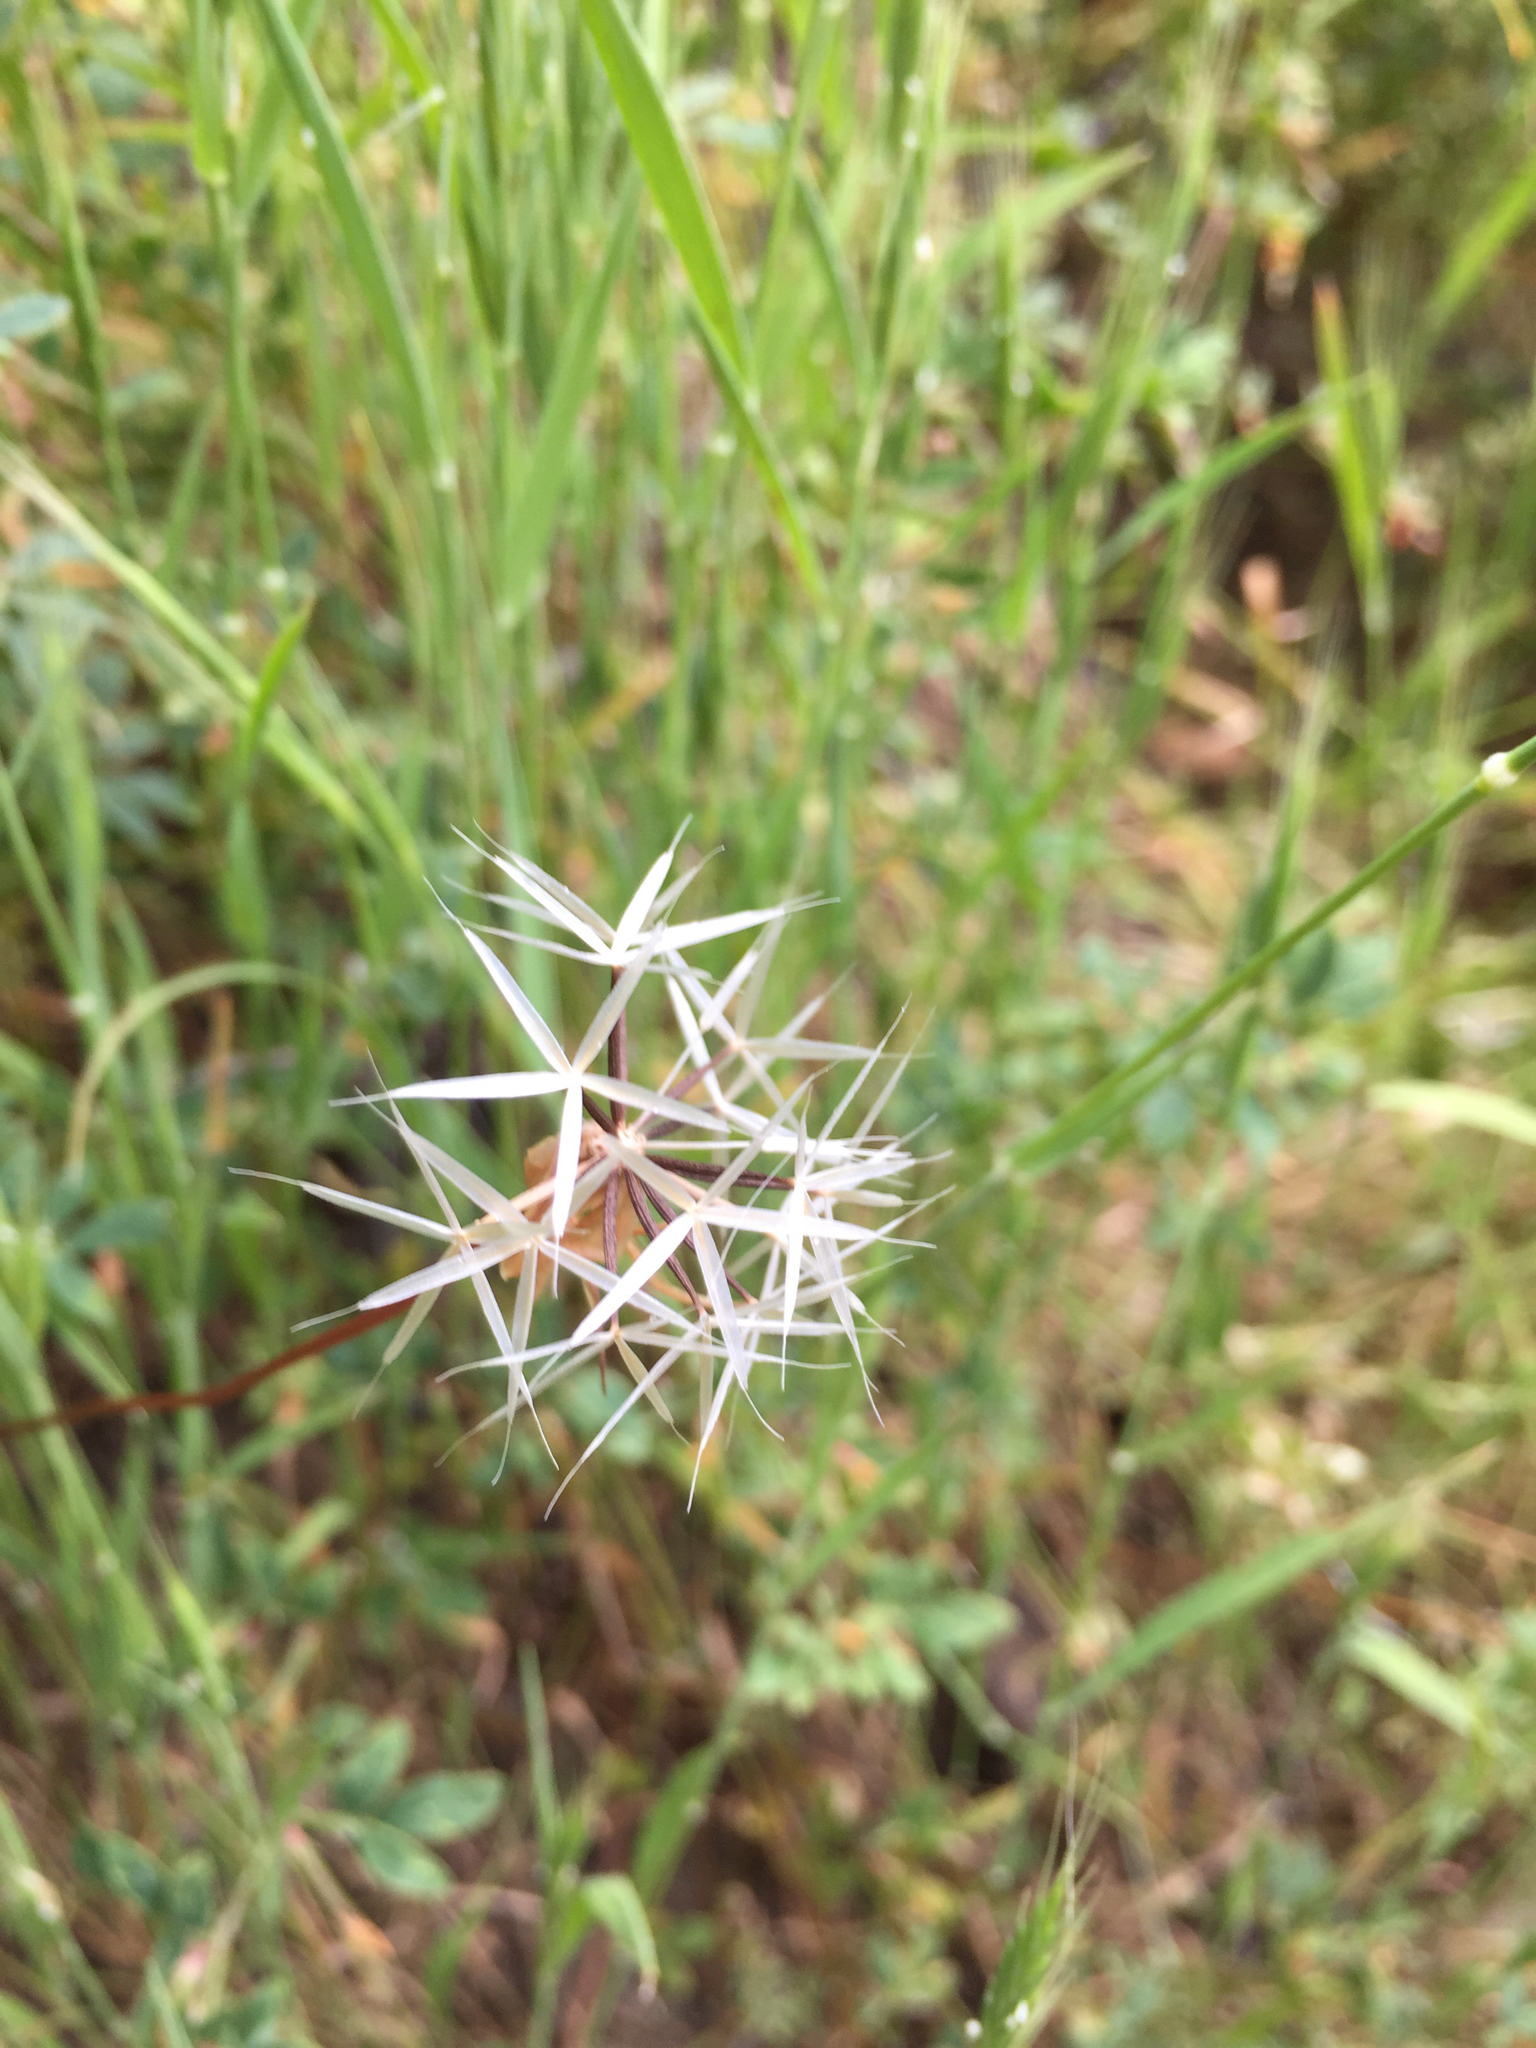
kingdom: Plantae
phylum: Tracheophyta
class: Magnoliopsida
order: Asterales
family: Asteraceae
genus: Microseris
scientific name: Microseris lindleyi
